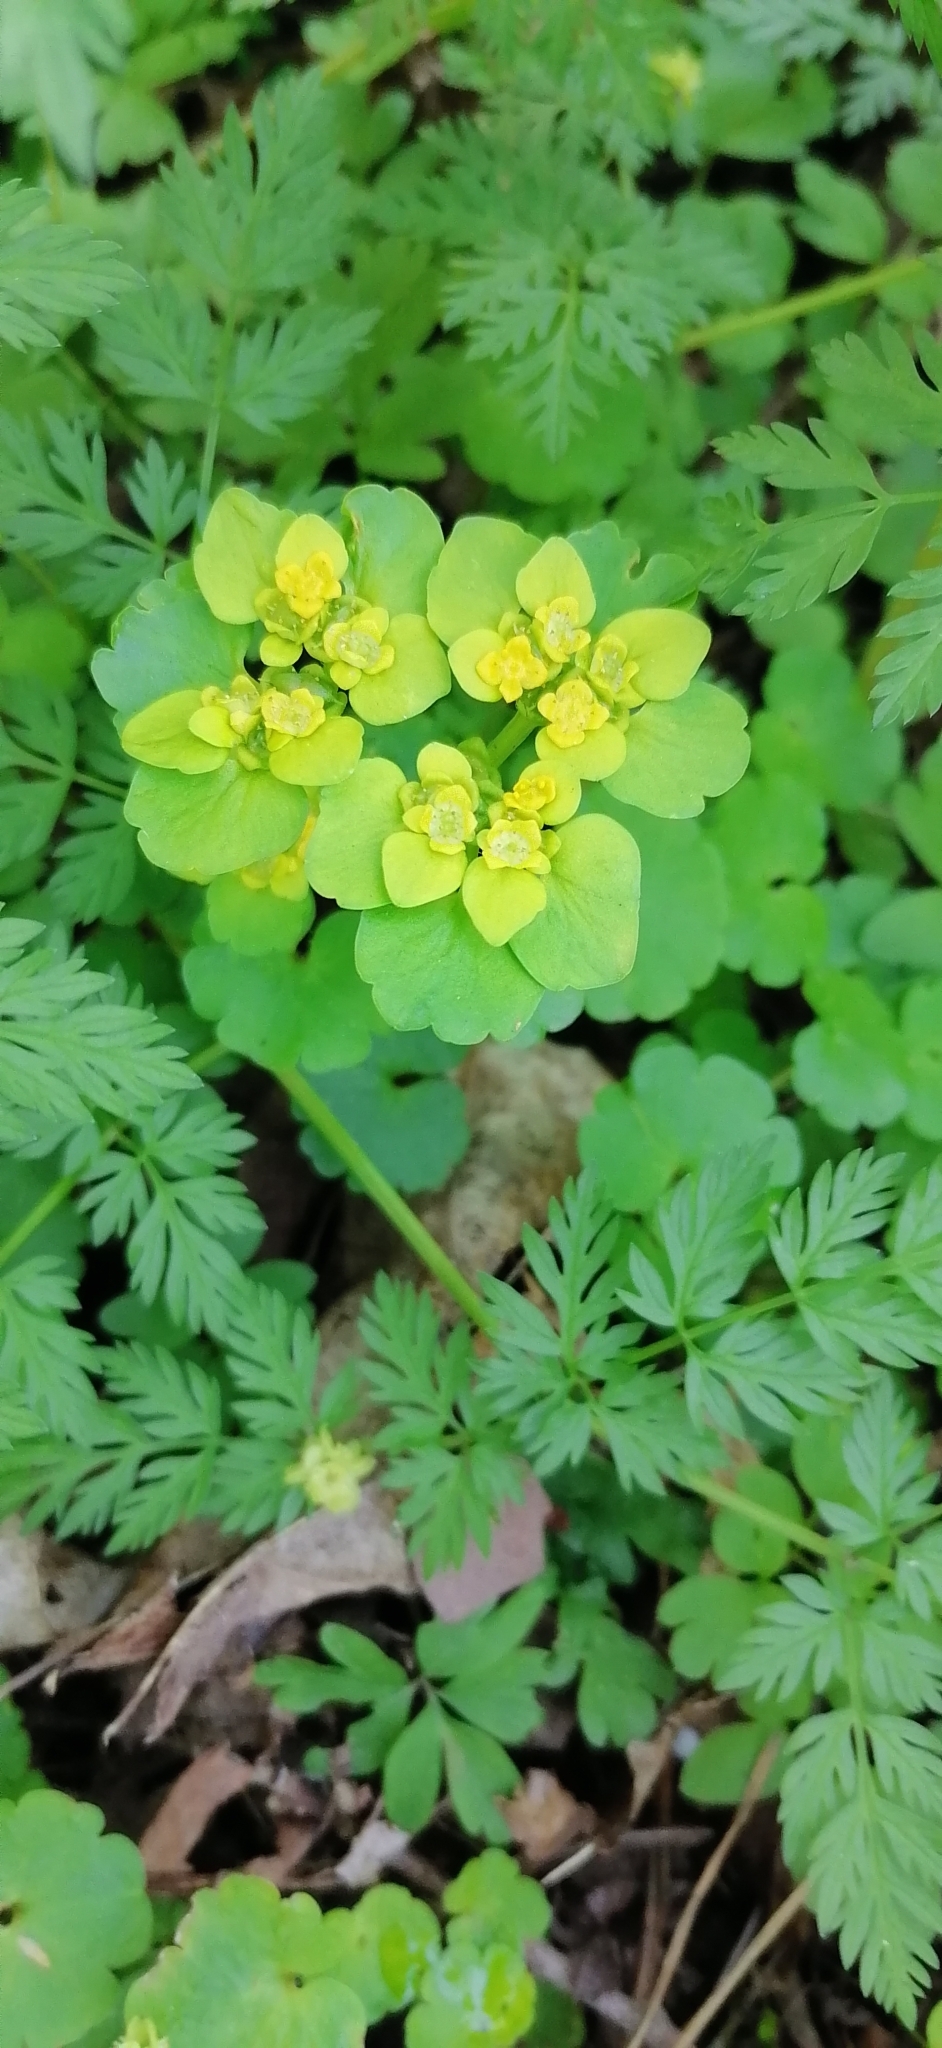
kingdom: Plantae
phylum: Tracheophyta
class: Magnoliopsida
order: Saxifragales
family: Saxifragaceae
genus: Chrysosplenium
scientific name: Chrysosplenium alternifolium
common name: Alternate-leaved golden-saxifrage
